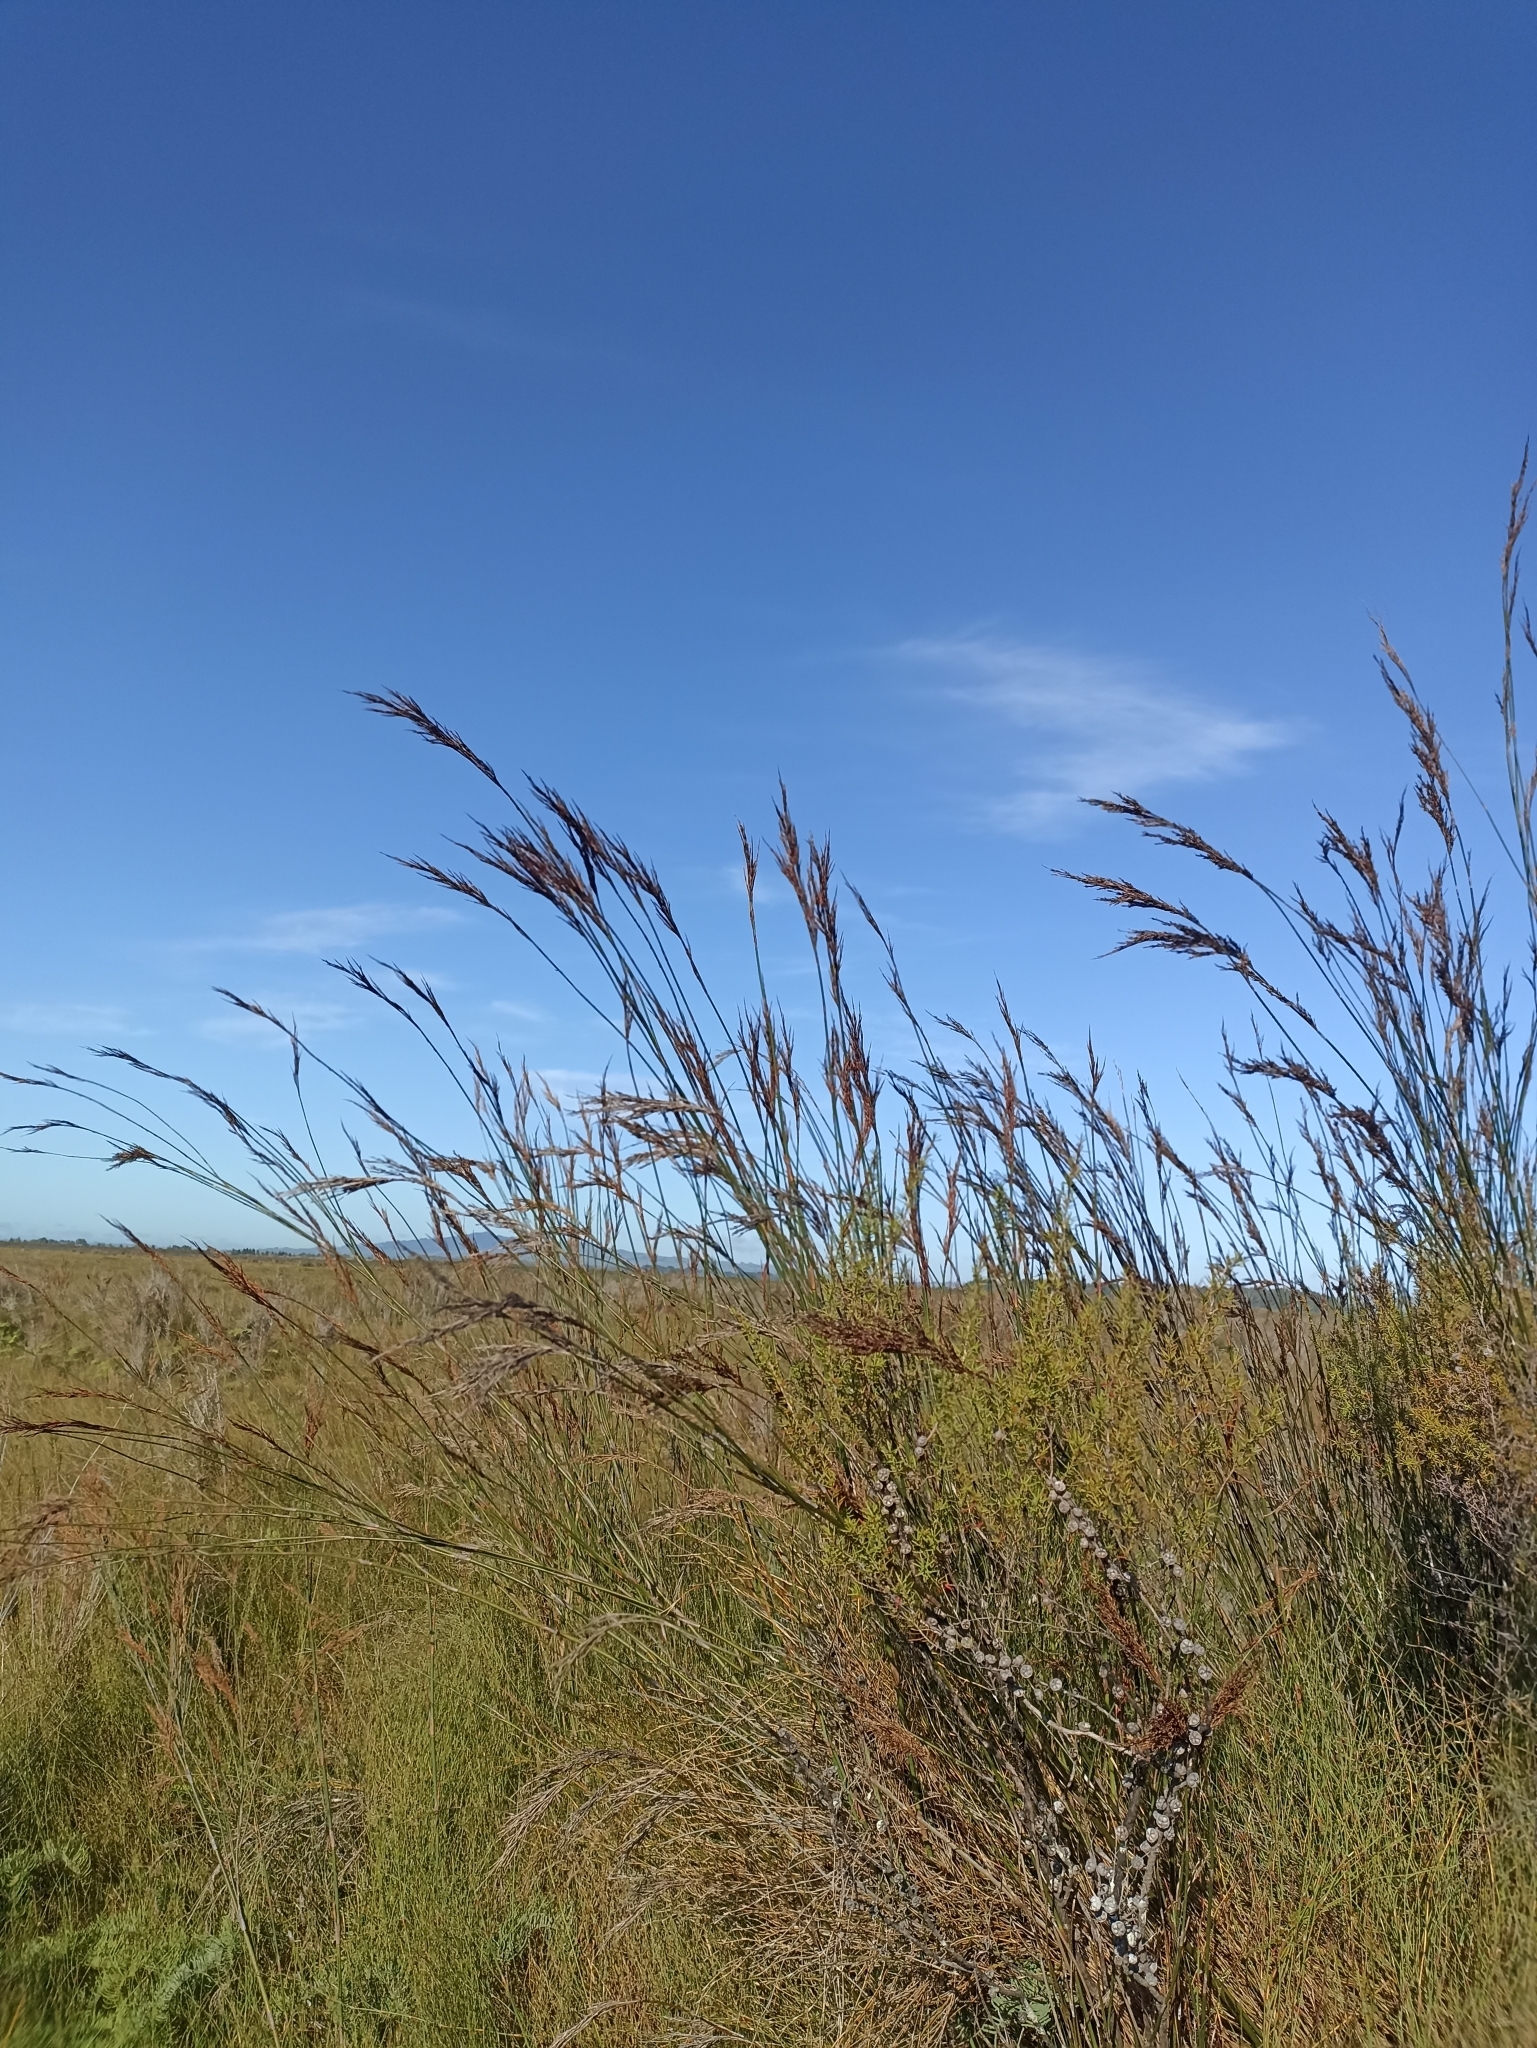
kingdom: Plantae
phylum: Tracheophyta
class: Liliopsida
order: Poales
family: Restionaceae
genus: Sporadanthus
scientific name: Sporadanthus ferrugineus
